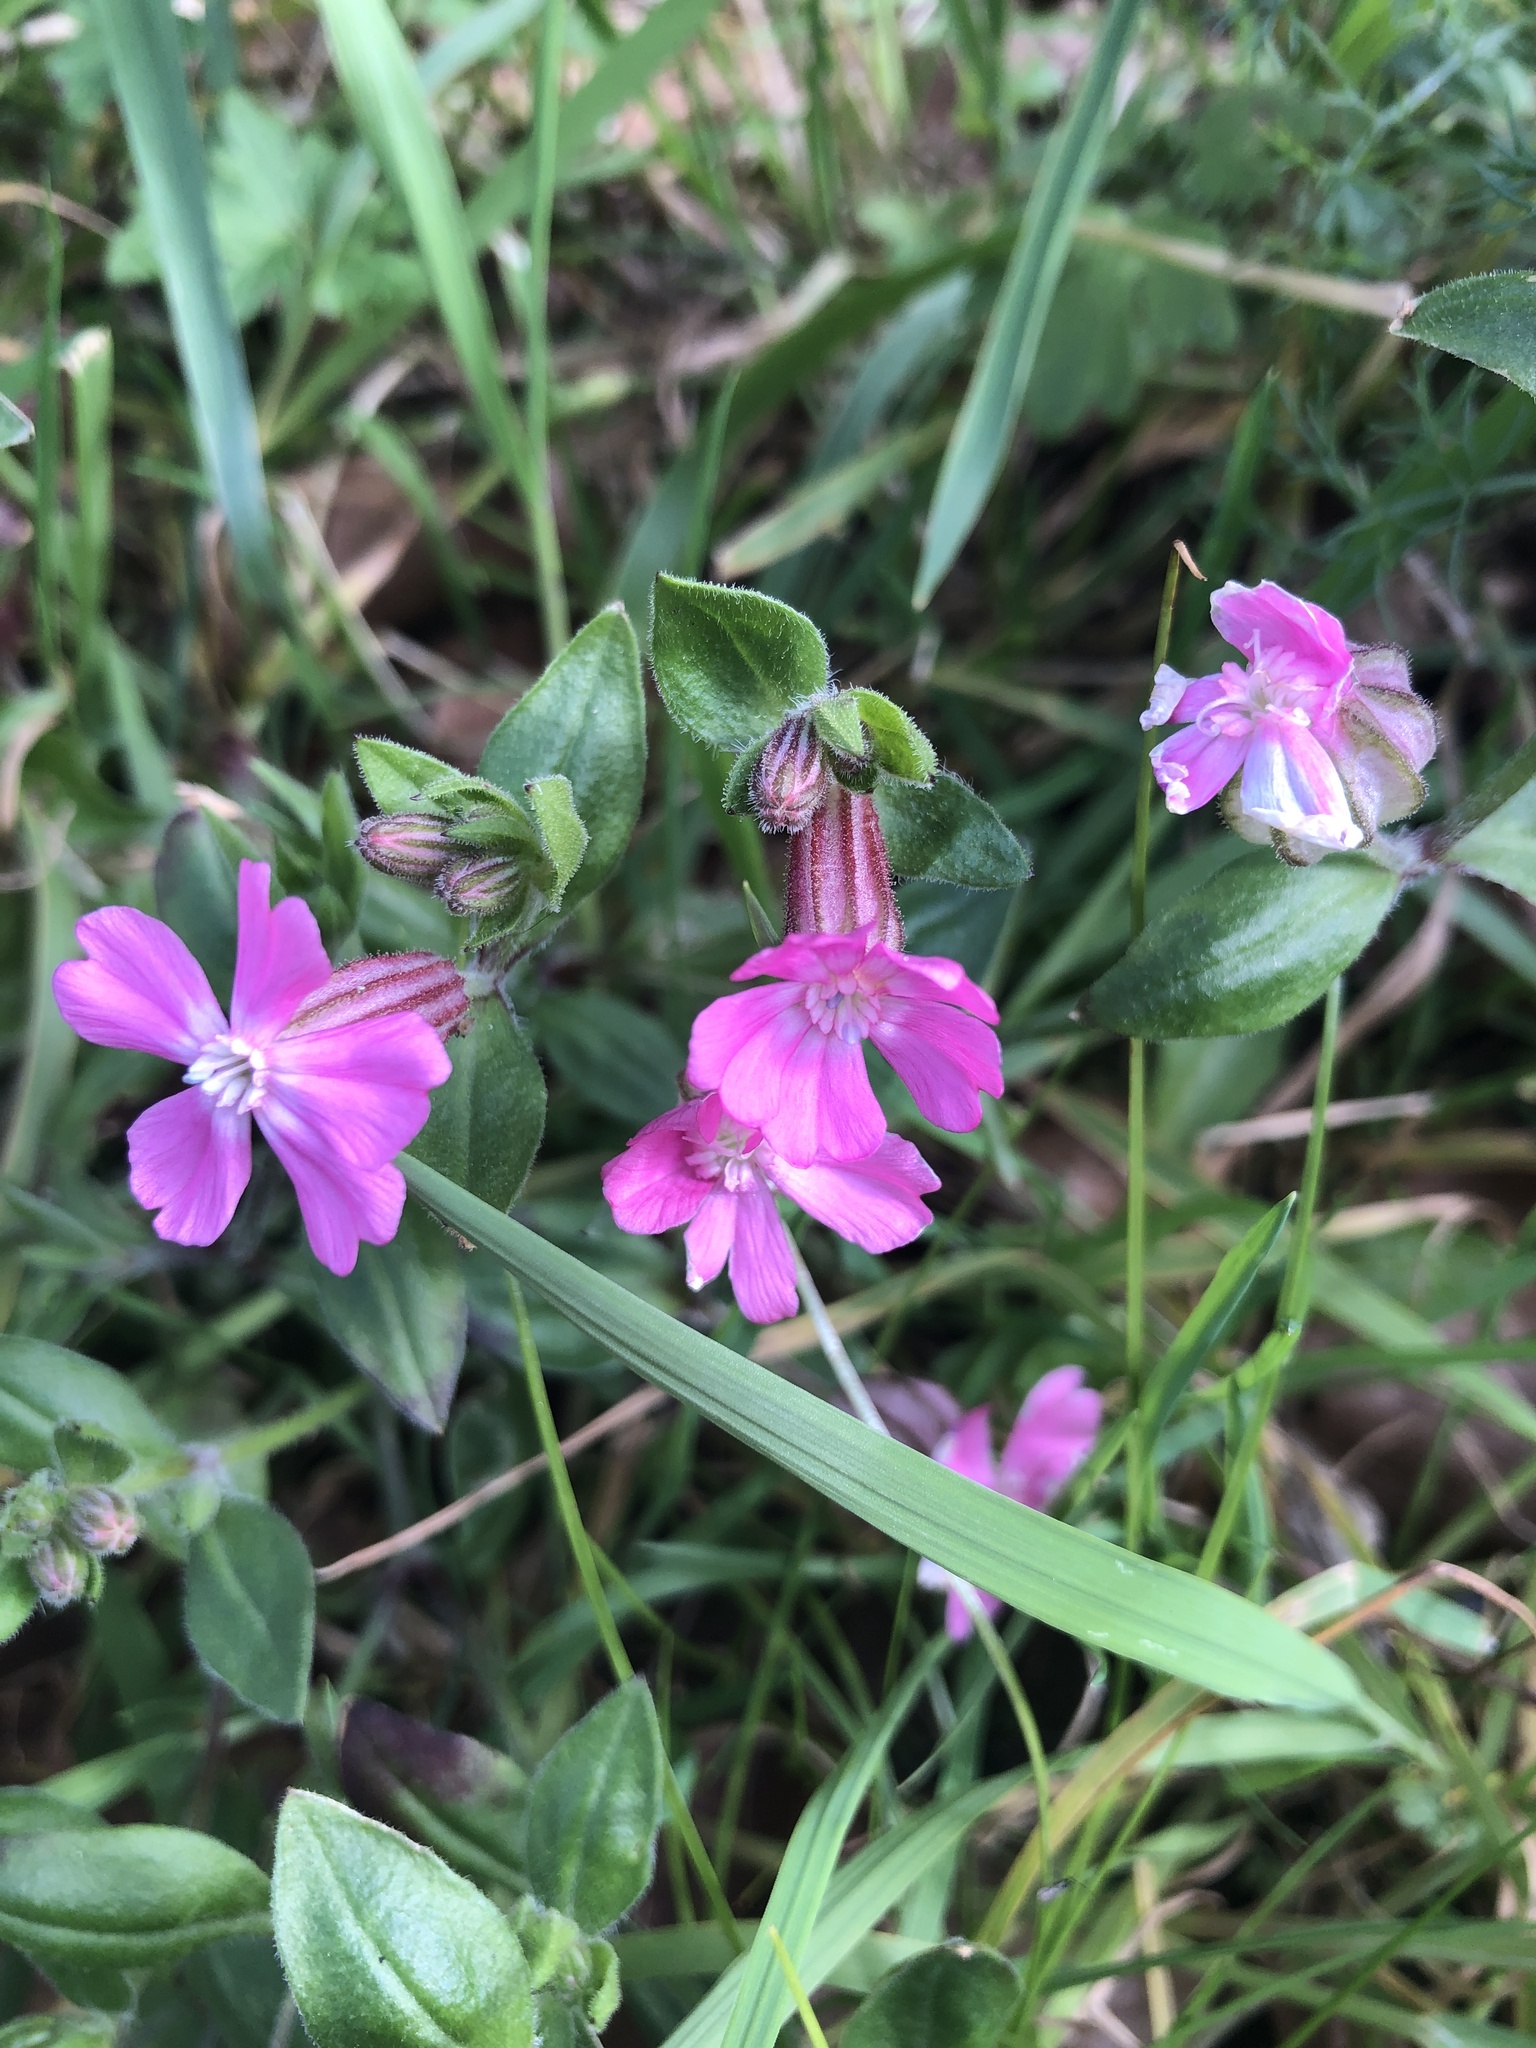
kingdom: Plantae
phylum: Tracheophyta
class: Magnoliopsida
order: Caryophyllales
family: Caryophyllaceae
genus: Silene
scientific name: Silene dioica
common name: Red campion
